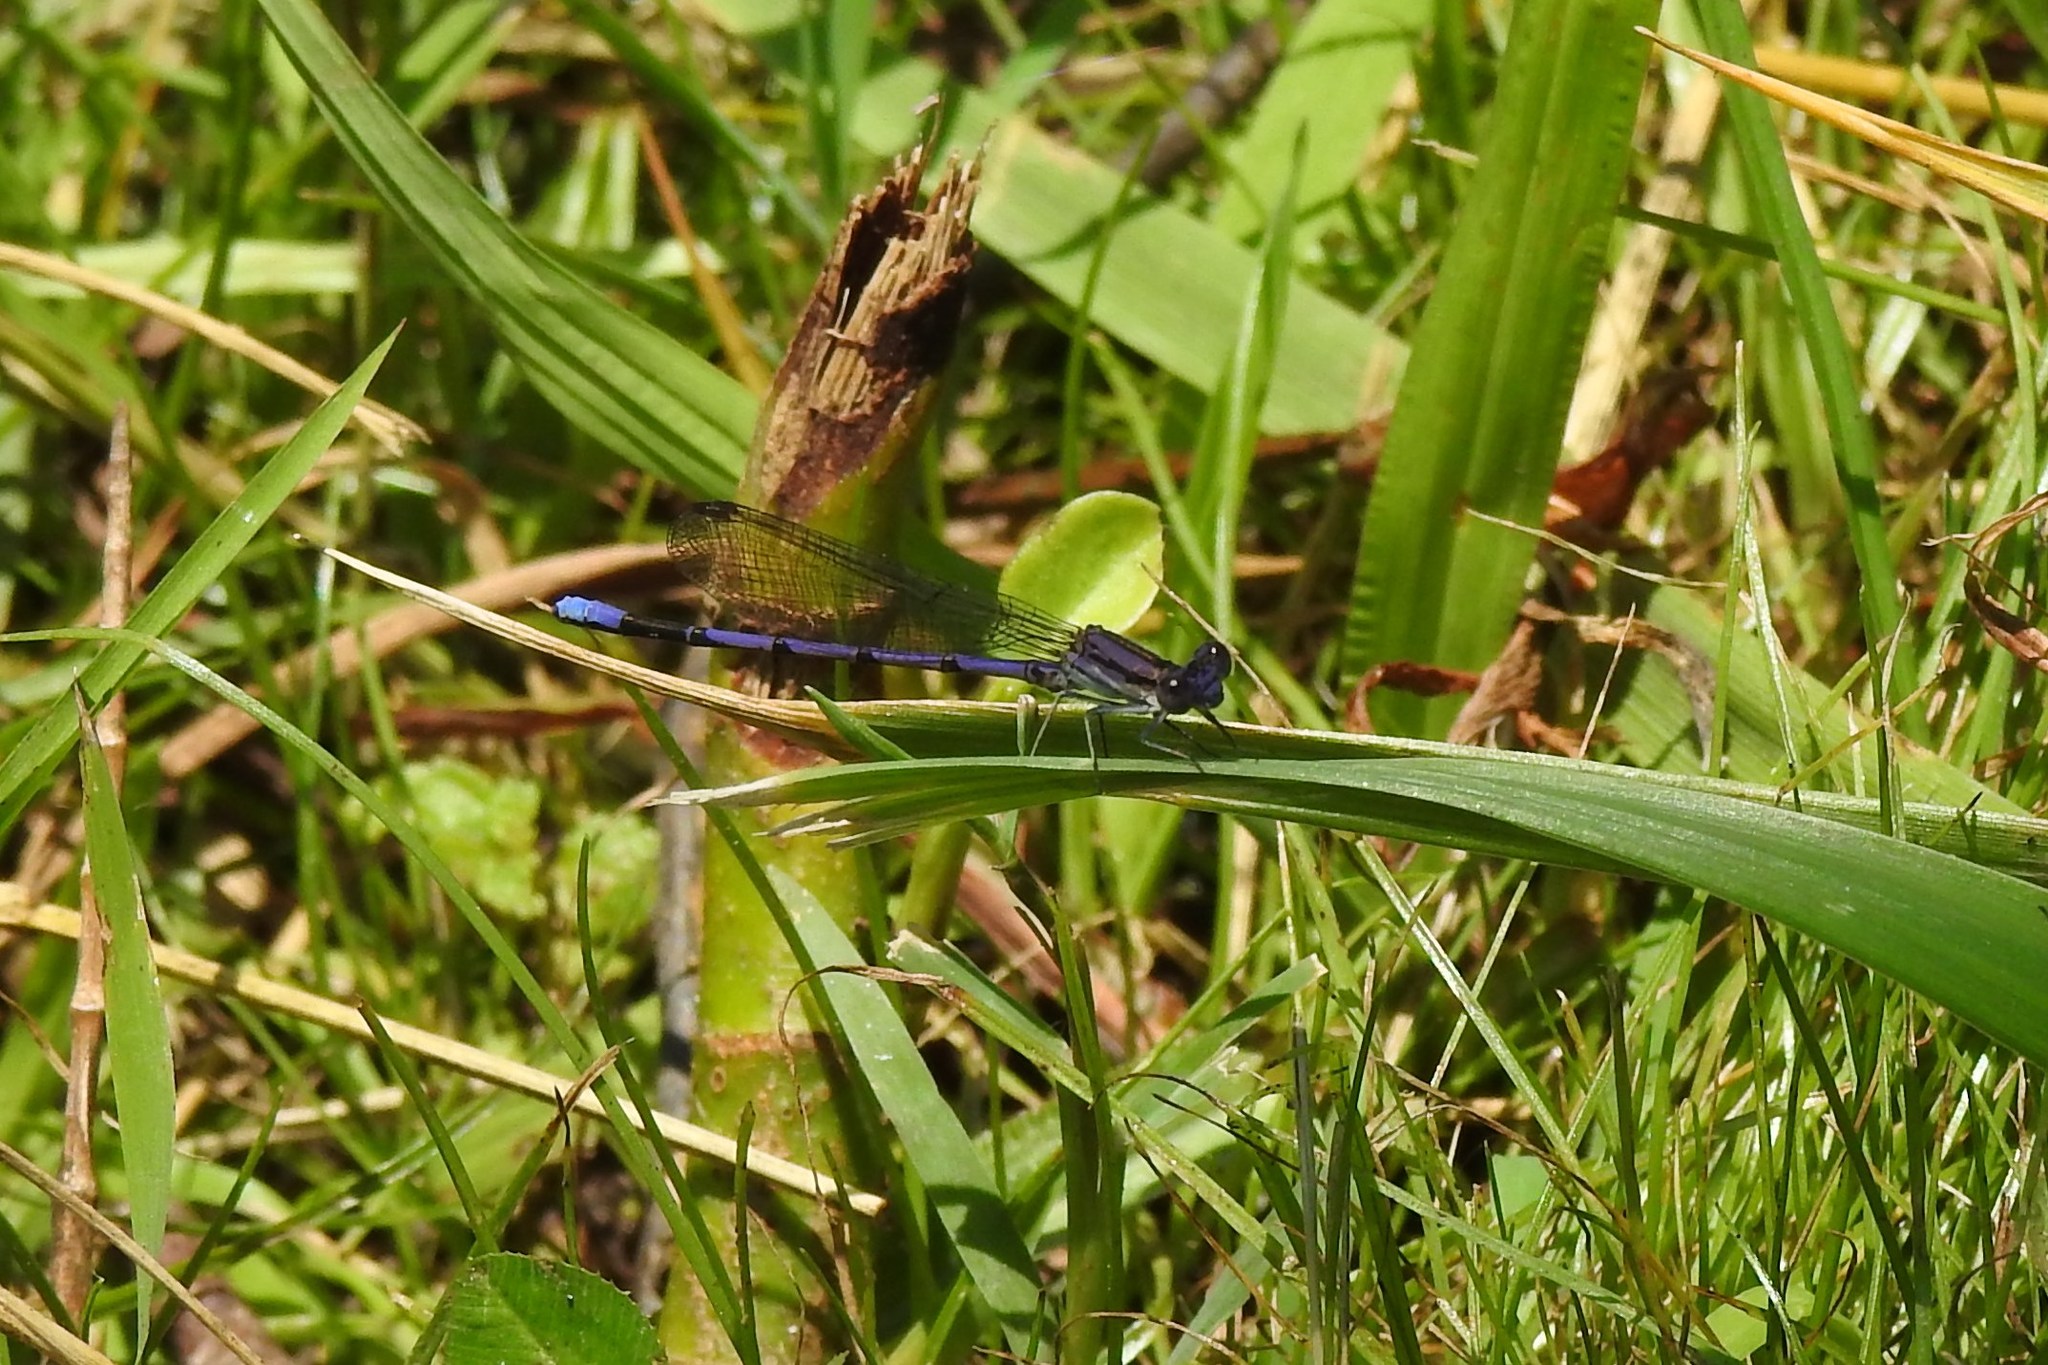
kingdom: Animalia
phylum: Arthropoda
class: Insecta
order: Odonata
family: Coenagrionidae
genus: Argia
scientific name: Argia fumipennis
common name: Variable dancer
